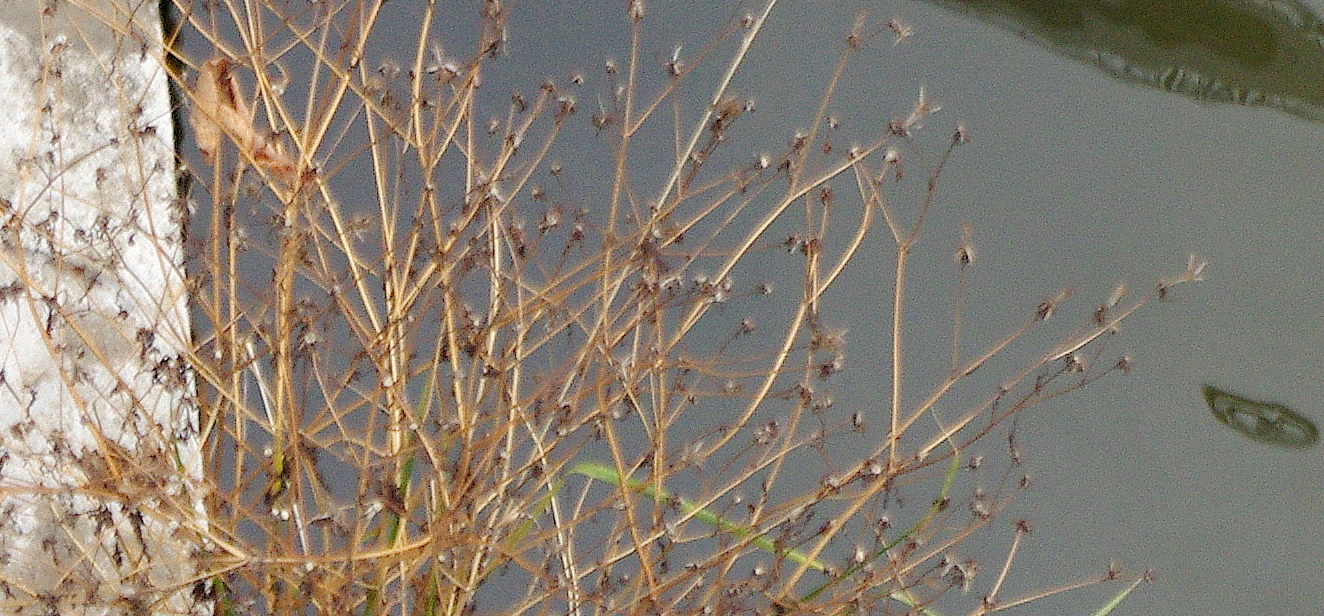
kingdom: Plantae
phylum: Tracheophyta
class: Magnoliopsida
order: Asterales
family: Asteraceae
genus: Bidens
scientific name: Bidens frondosa
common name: Beggarticks
